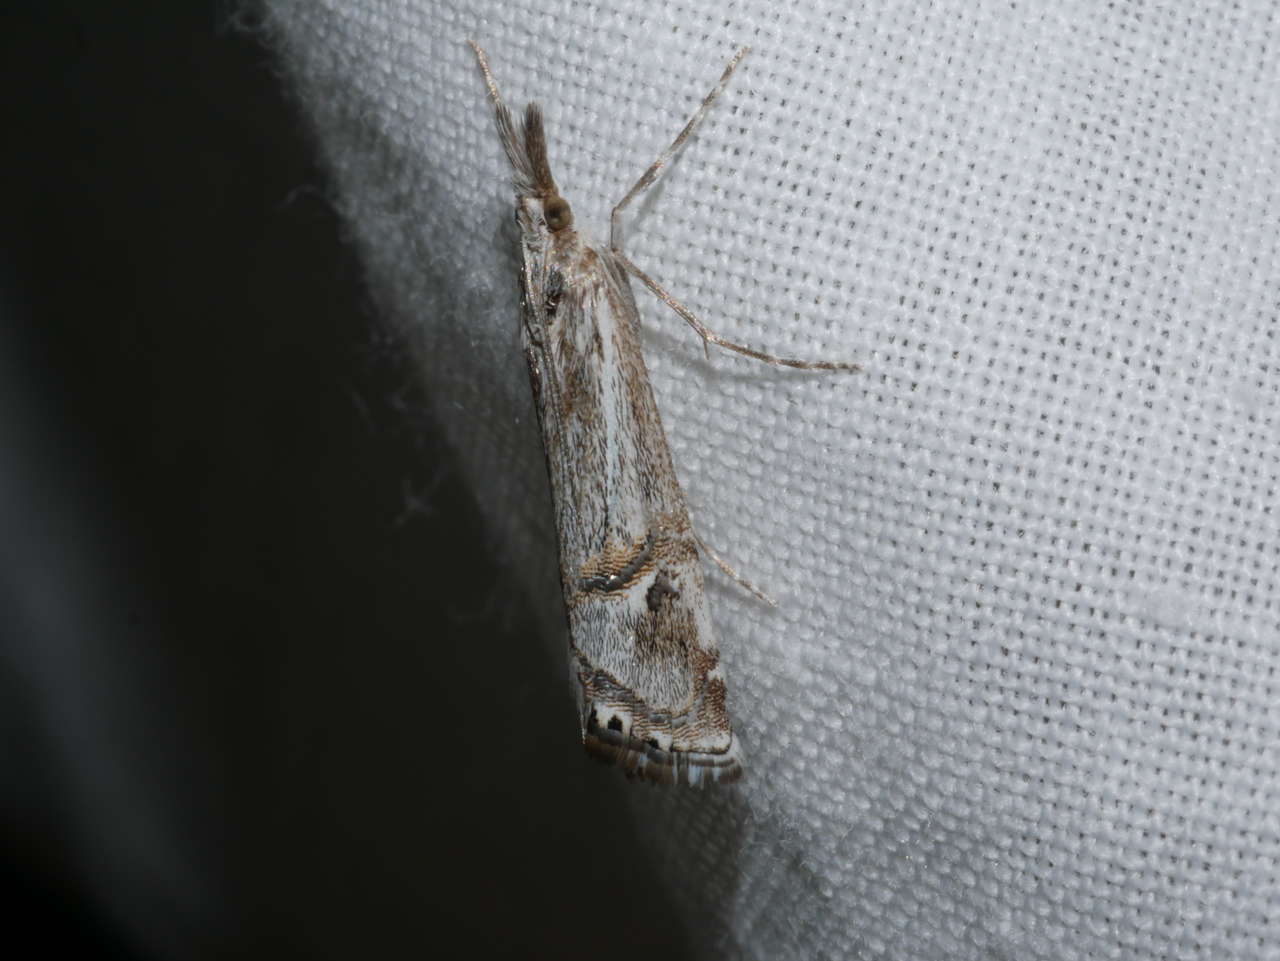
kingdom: Animalia
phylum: Arthropoda
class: Insecta
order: Lepidoptera
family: Crambidae
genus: Hednota
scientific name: Hednota longipalpella
